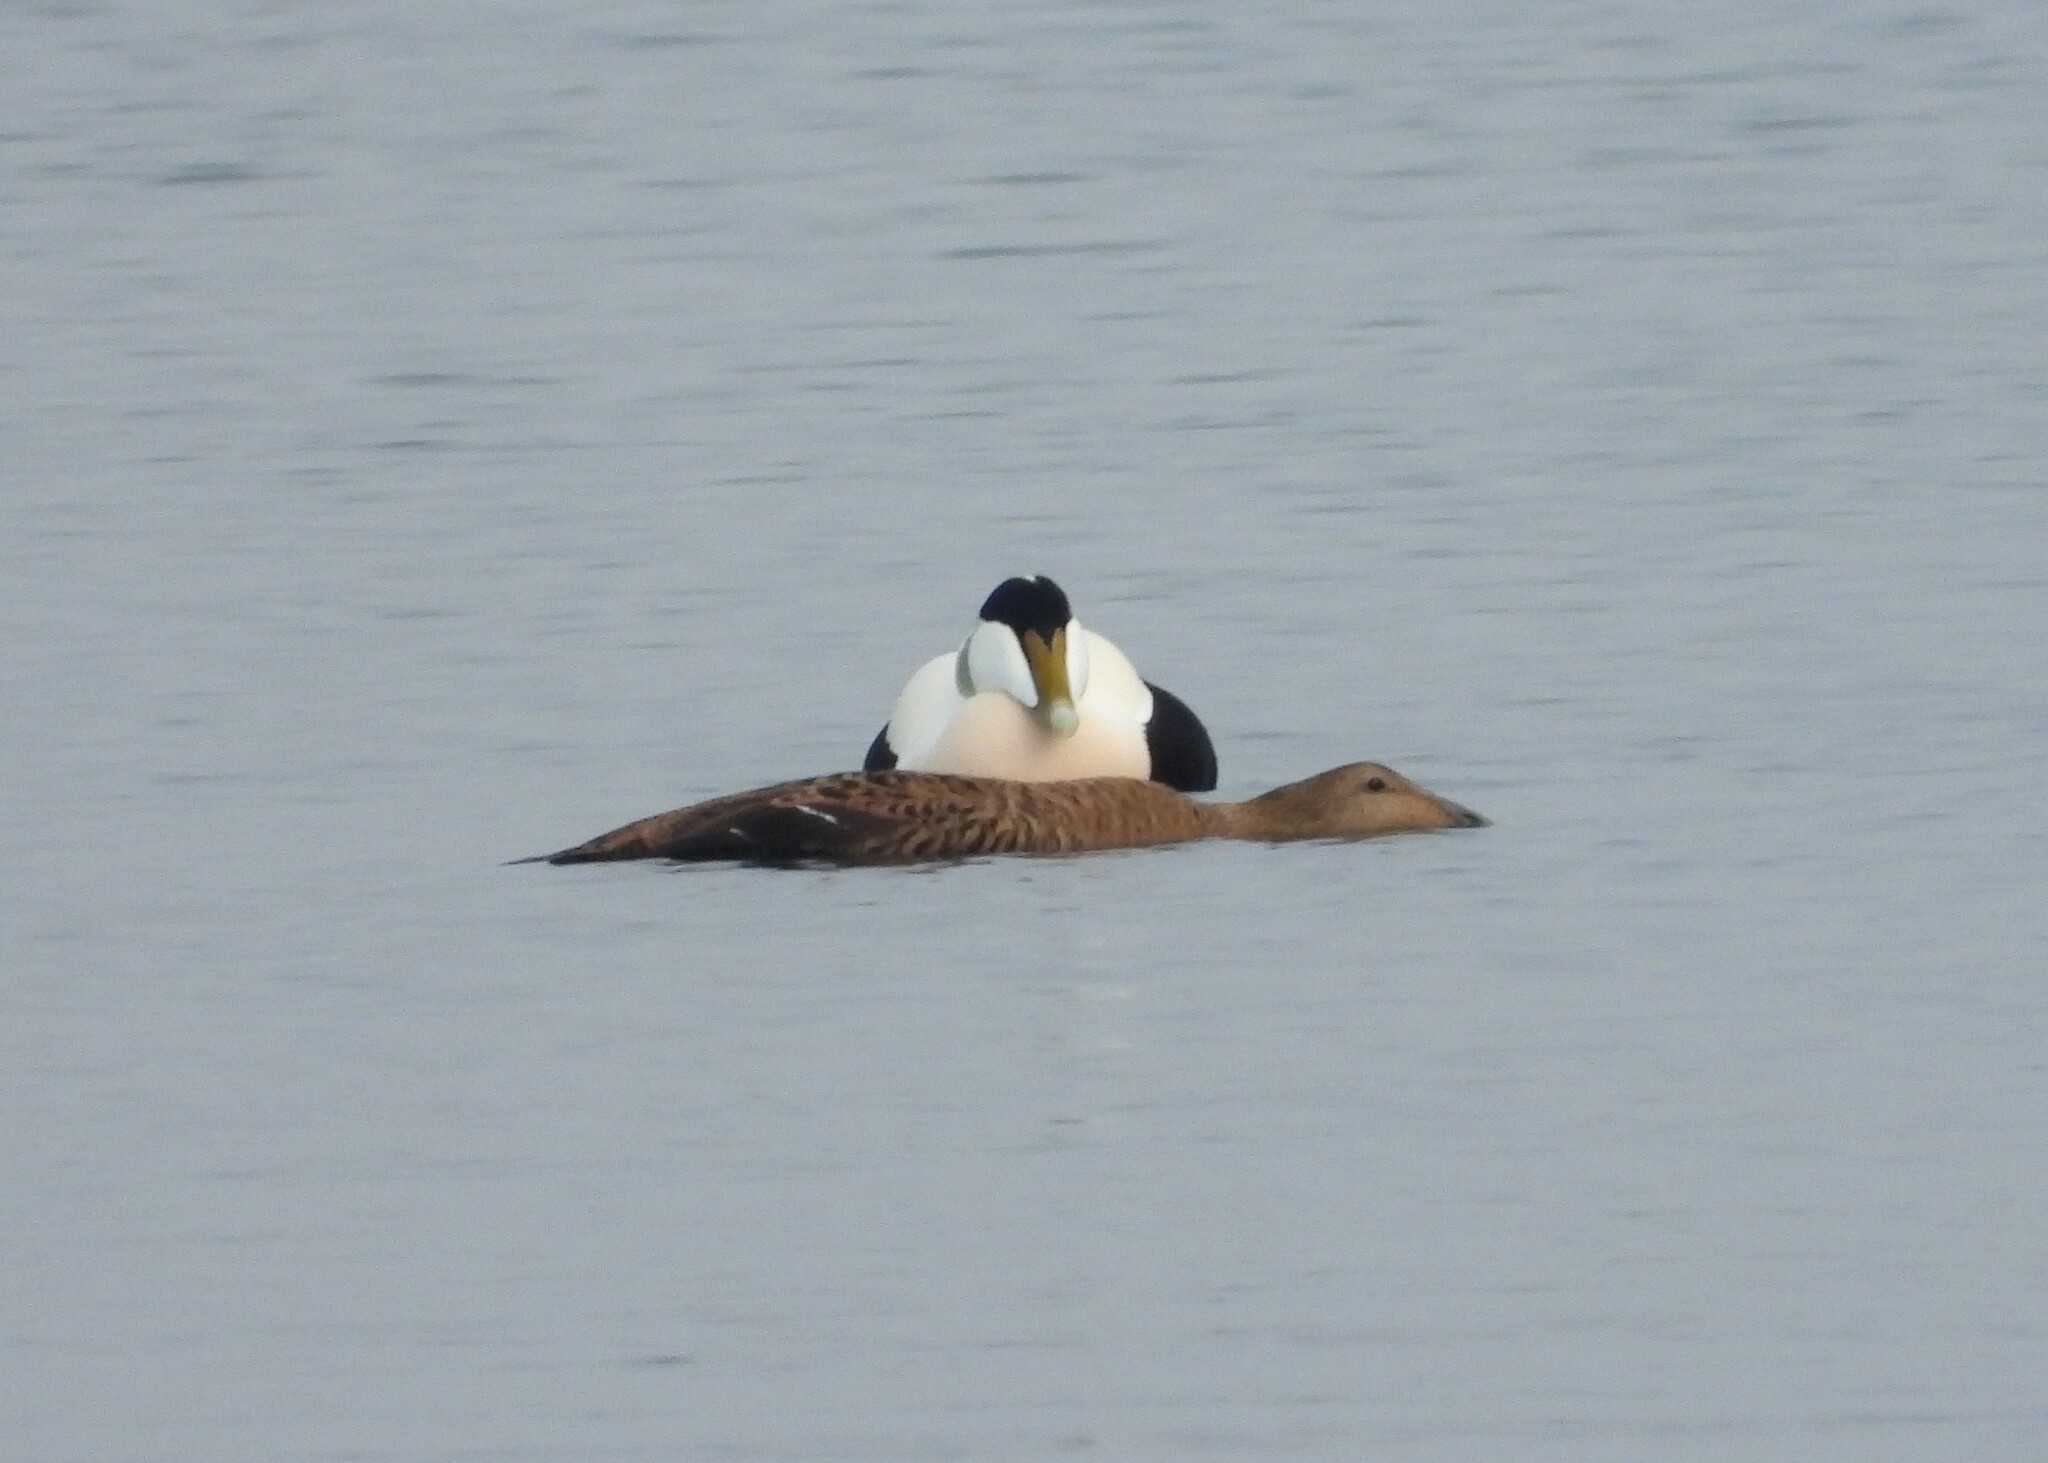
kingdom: Animalia
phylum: Chordata
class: Aves
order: Anseriformes
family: Anatidae
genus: Somateria
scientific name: Somateria mollissima
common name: Common eider
